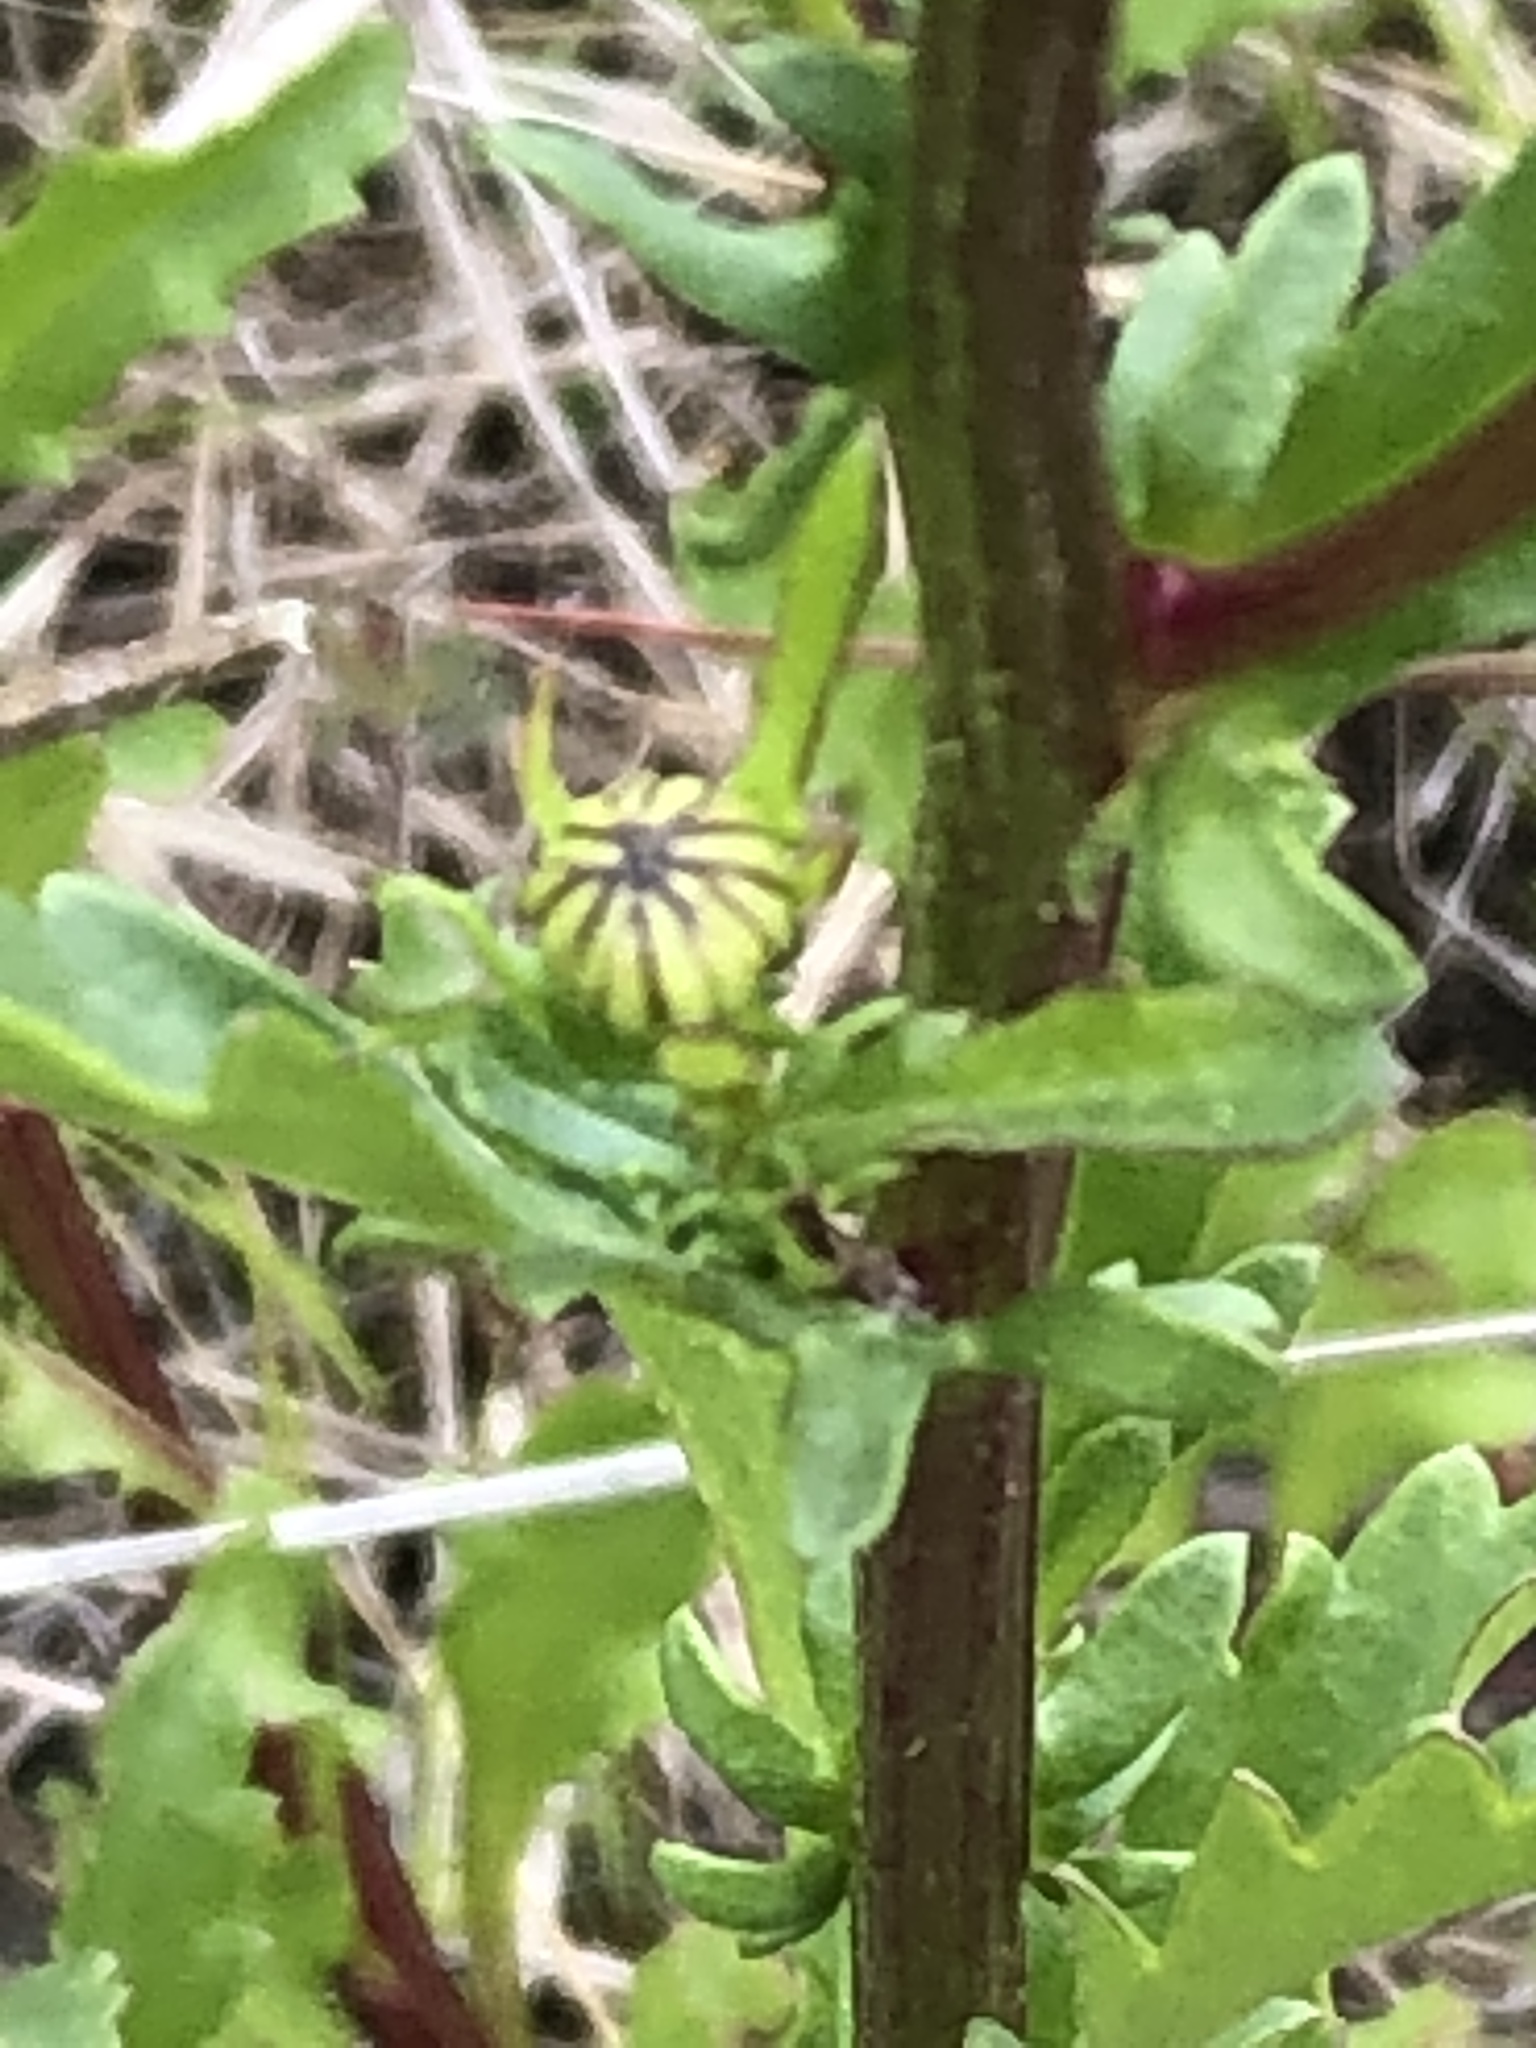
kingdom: Plantae
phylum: Tracheophyta
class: Magnoliopsida
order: Asterales
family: Asteraceae
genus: Leucanthemum
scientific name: Leucanthemum vulgare
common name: Oxeye daisy
